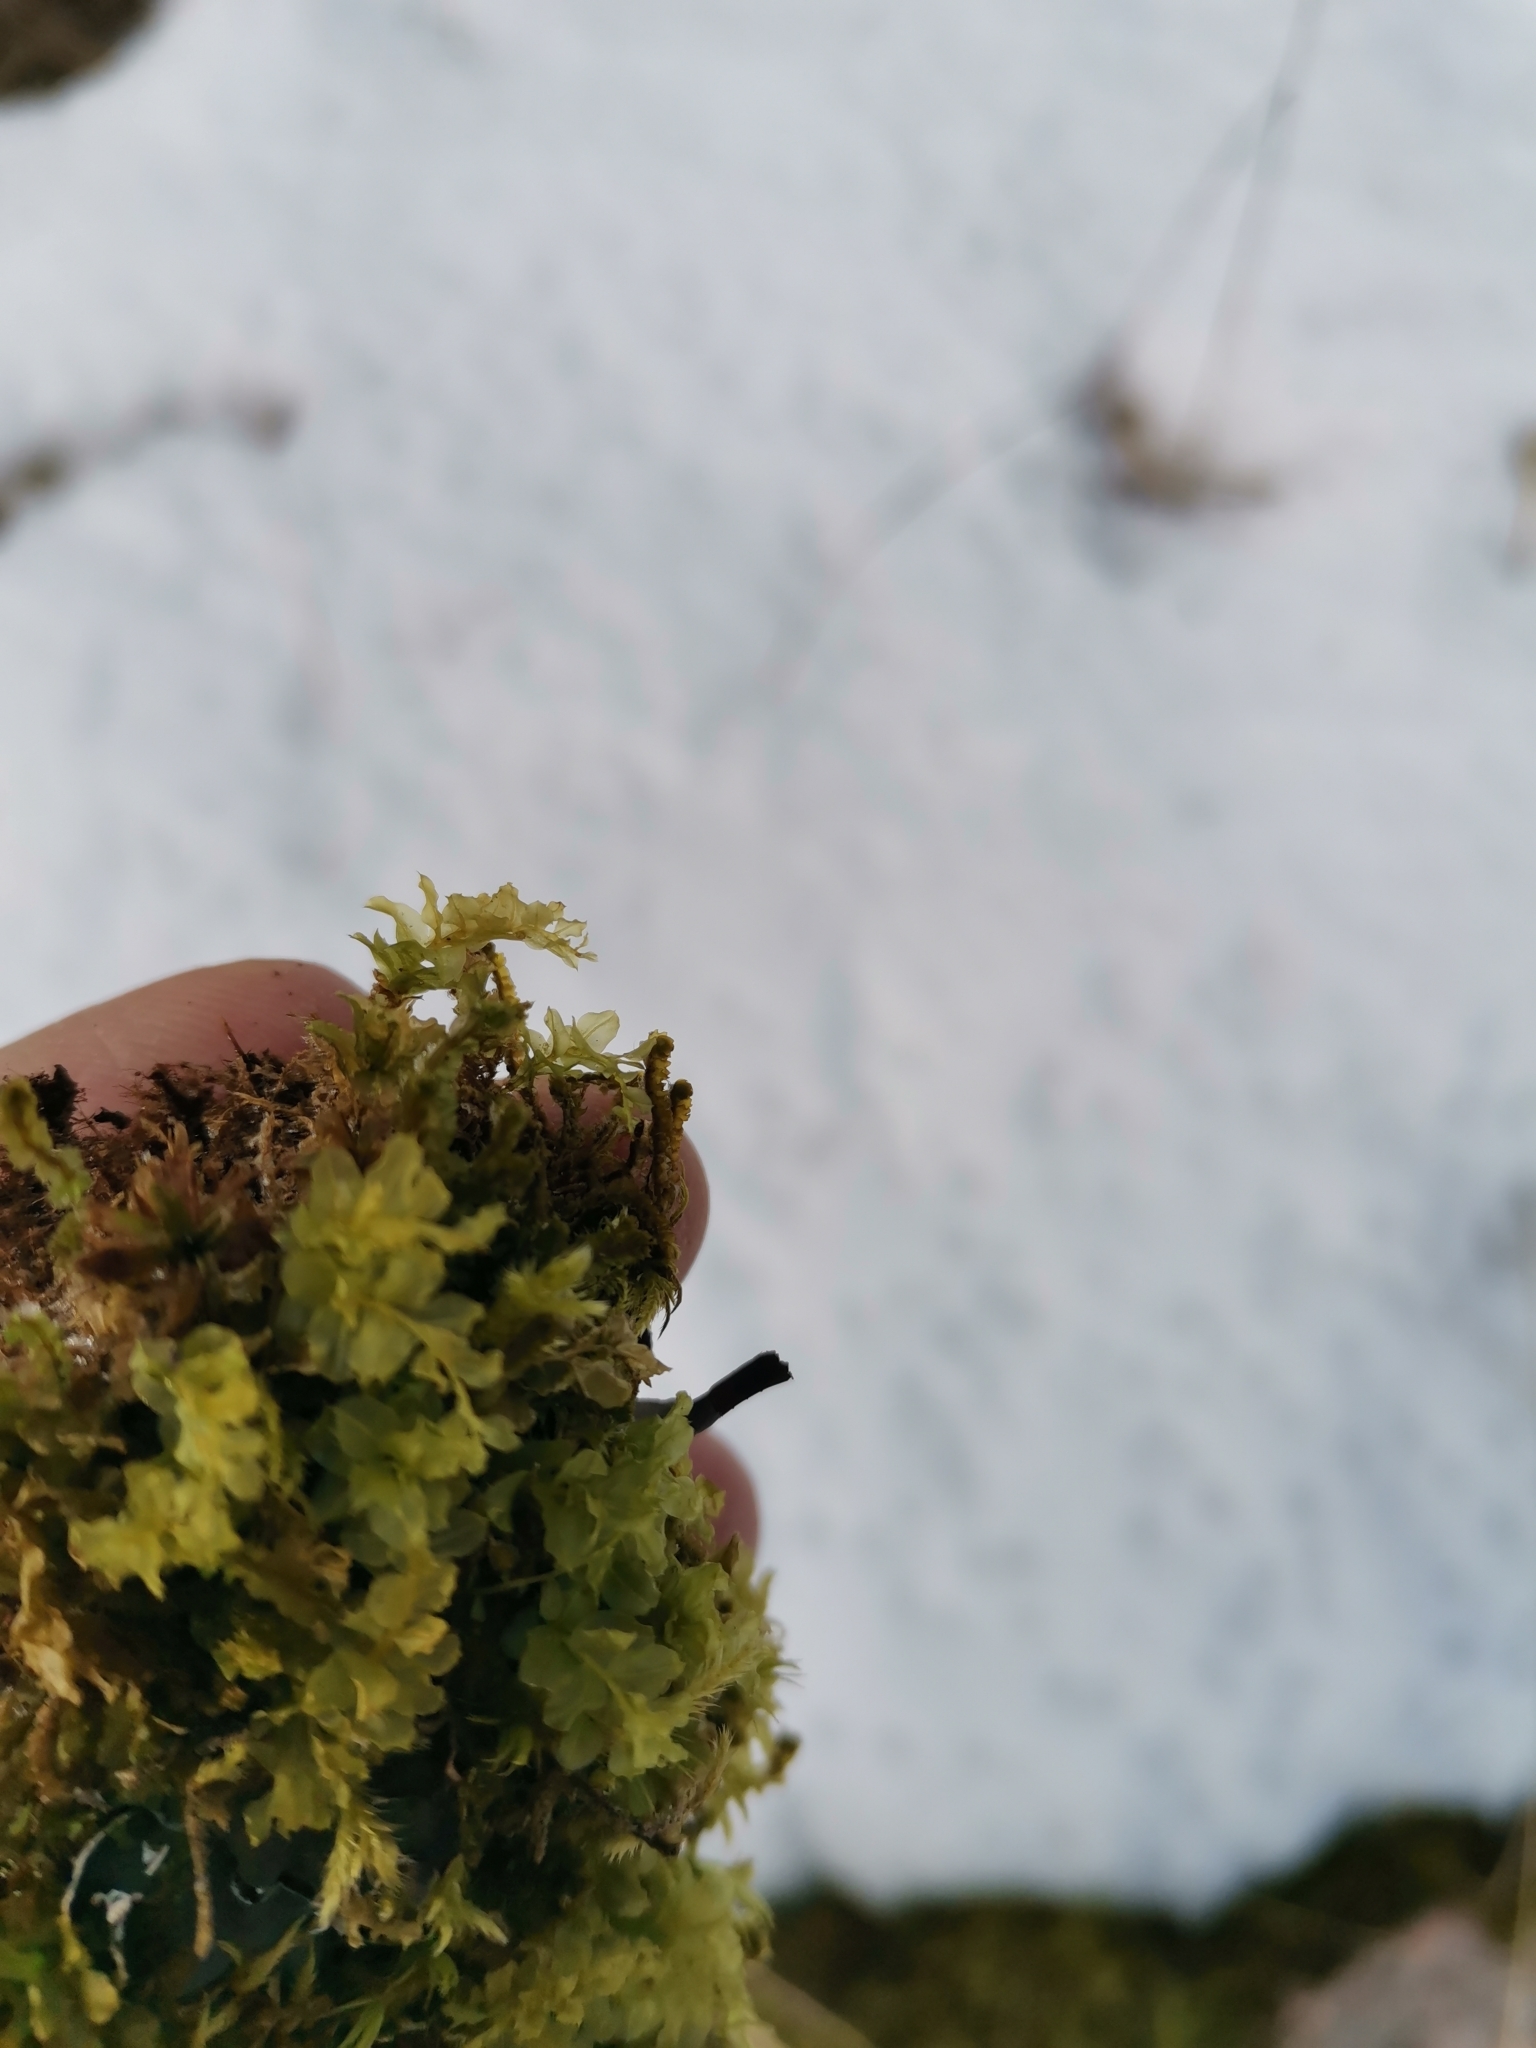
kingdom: Plantae
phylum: Bryophyta
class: Bryopsida
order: Bryales
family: Mniaceae
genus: Plagiomnium
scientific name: Plagiomnium cuspidatum
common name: Woodsy leafy moss
